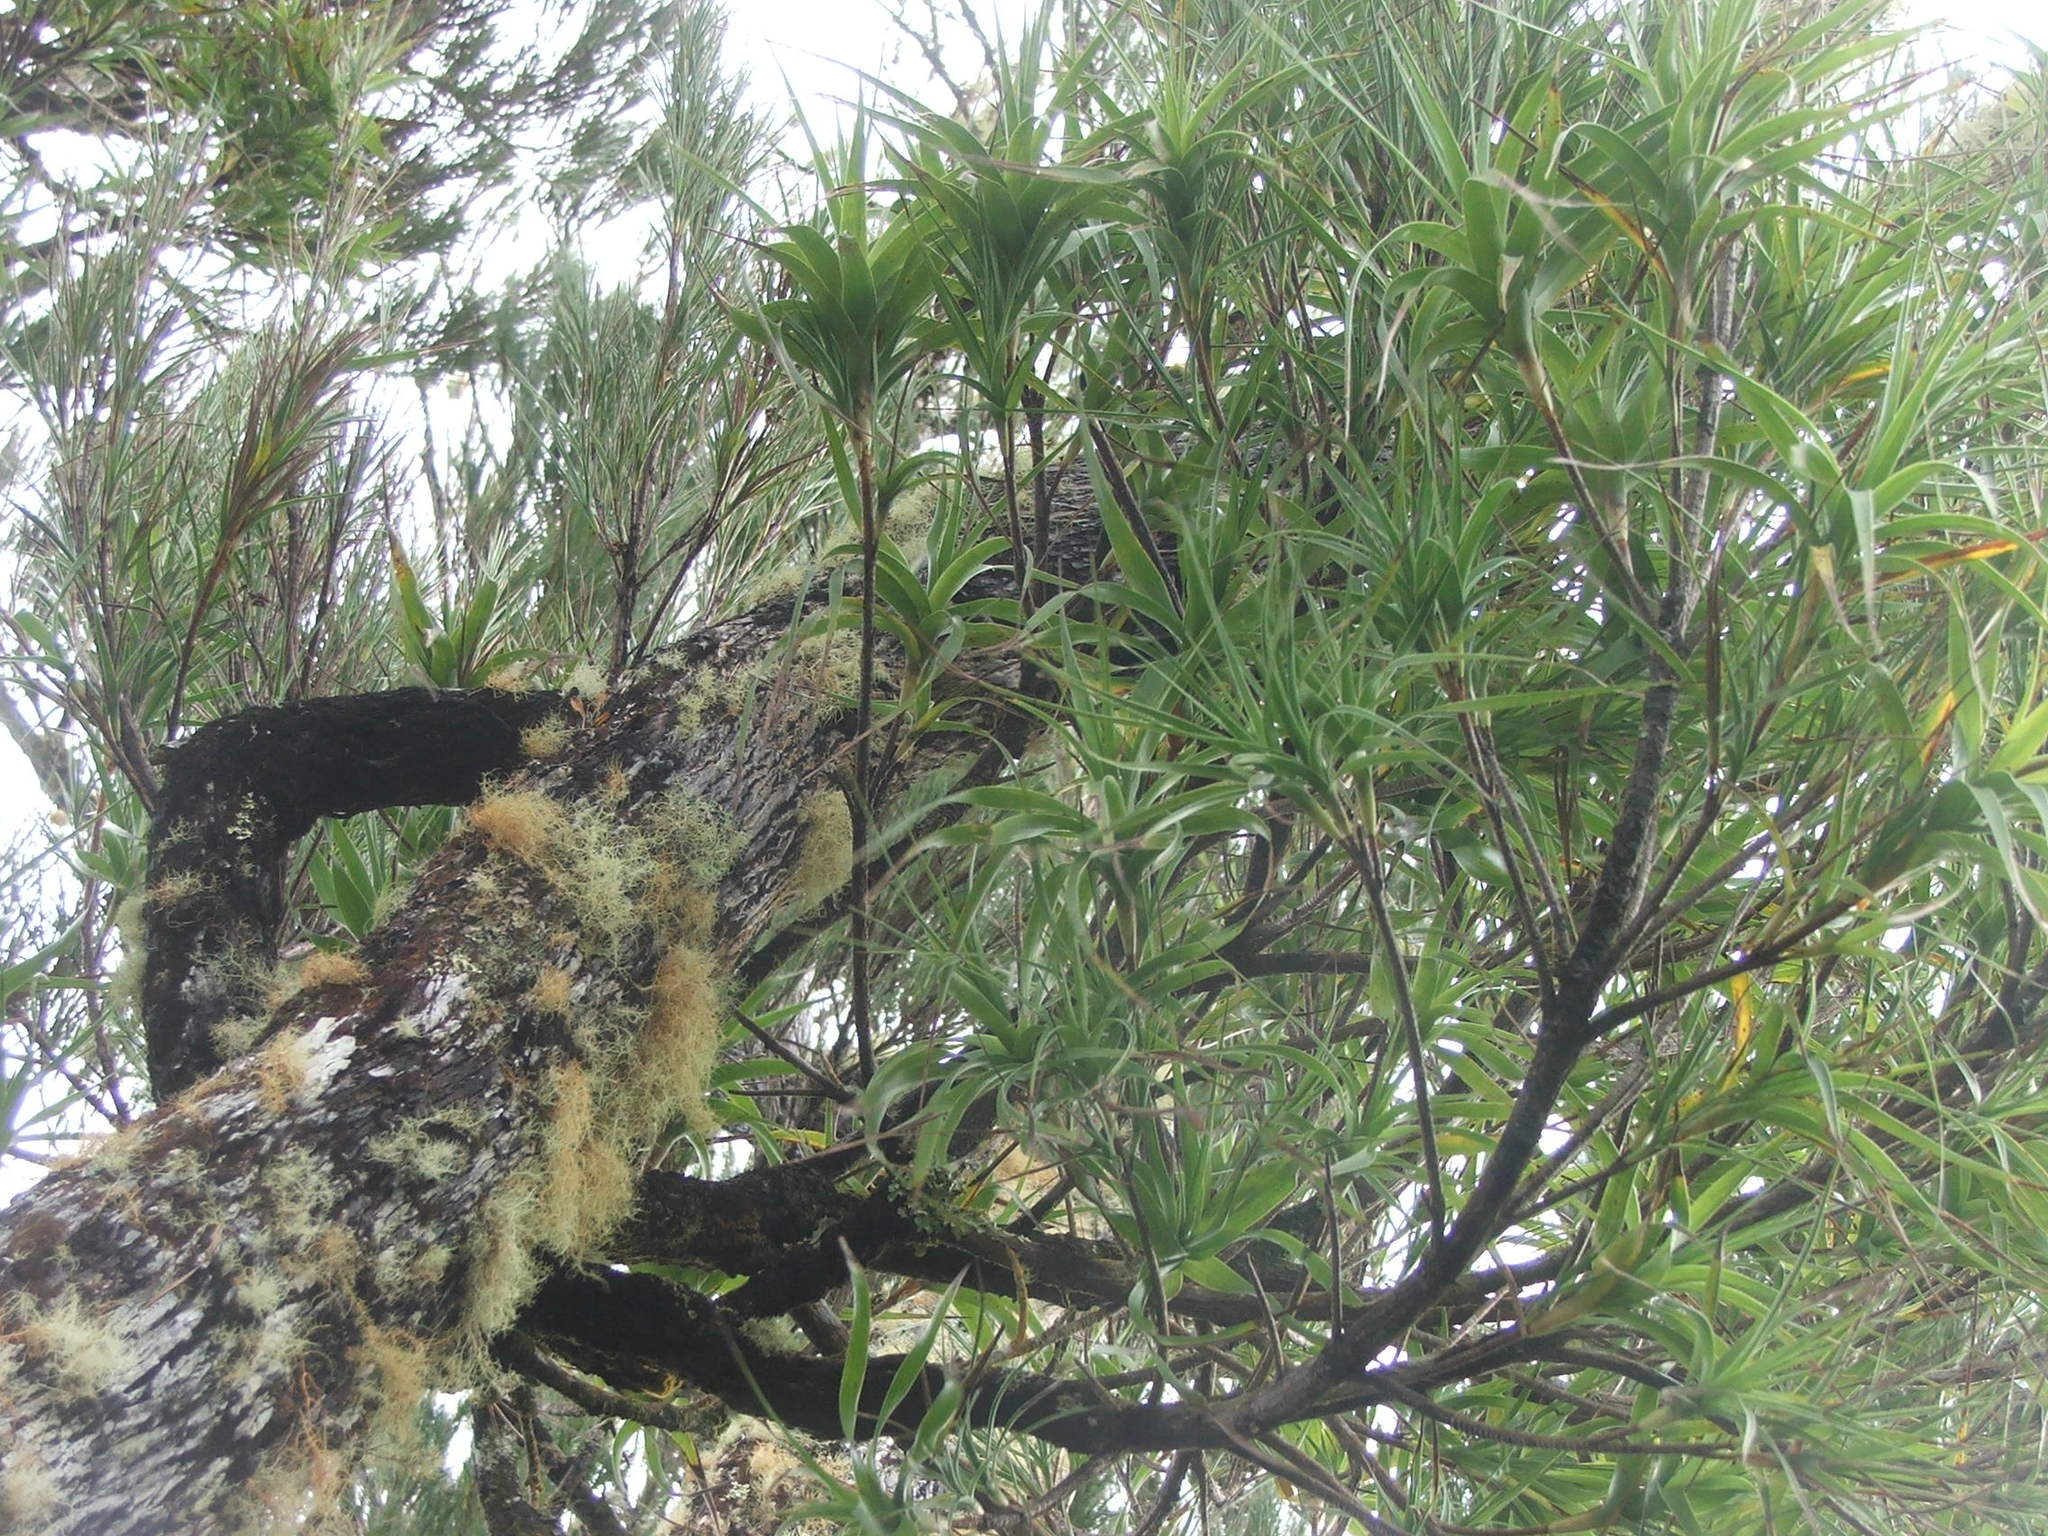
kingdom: Plantae
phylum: Tracheophyta
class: Magnoliopsida
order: Ericales
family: Ericaceae
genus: Dracophyllum
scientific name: Dracophyllum arboreum
